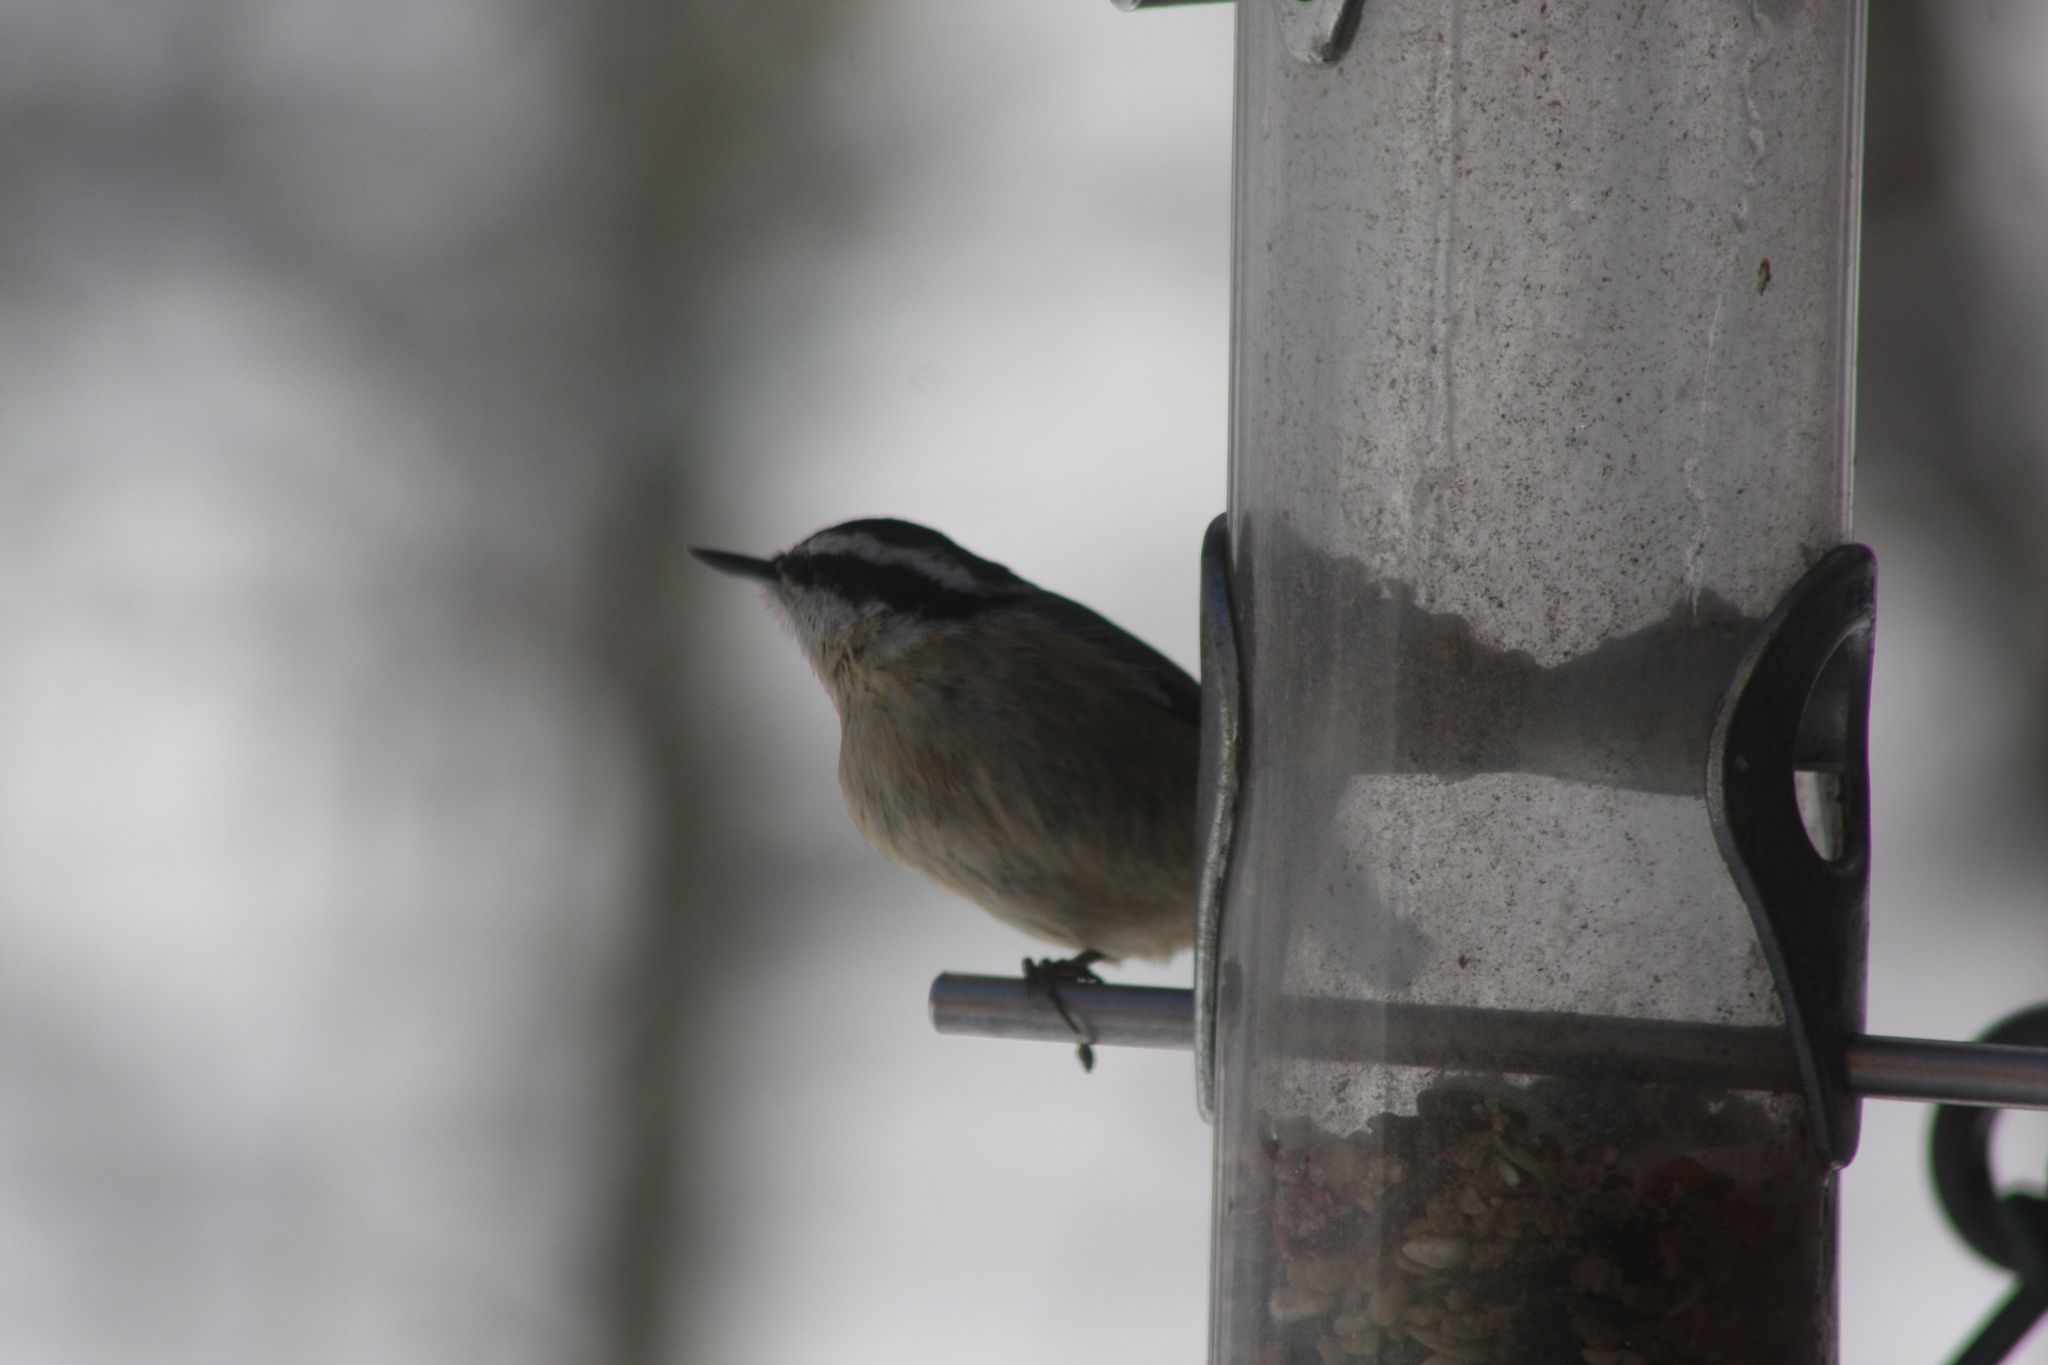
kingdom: Animalia
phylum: Chordata
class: Aves
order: Passeriformes
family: Sittidae
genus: Sitta
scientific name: Sitta canadensis
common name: Red-breasted nuthatch
